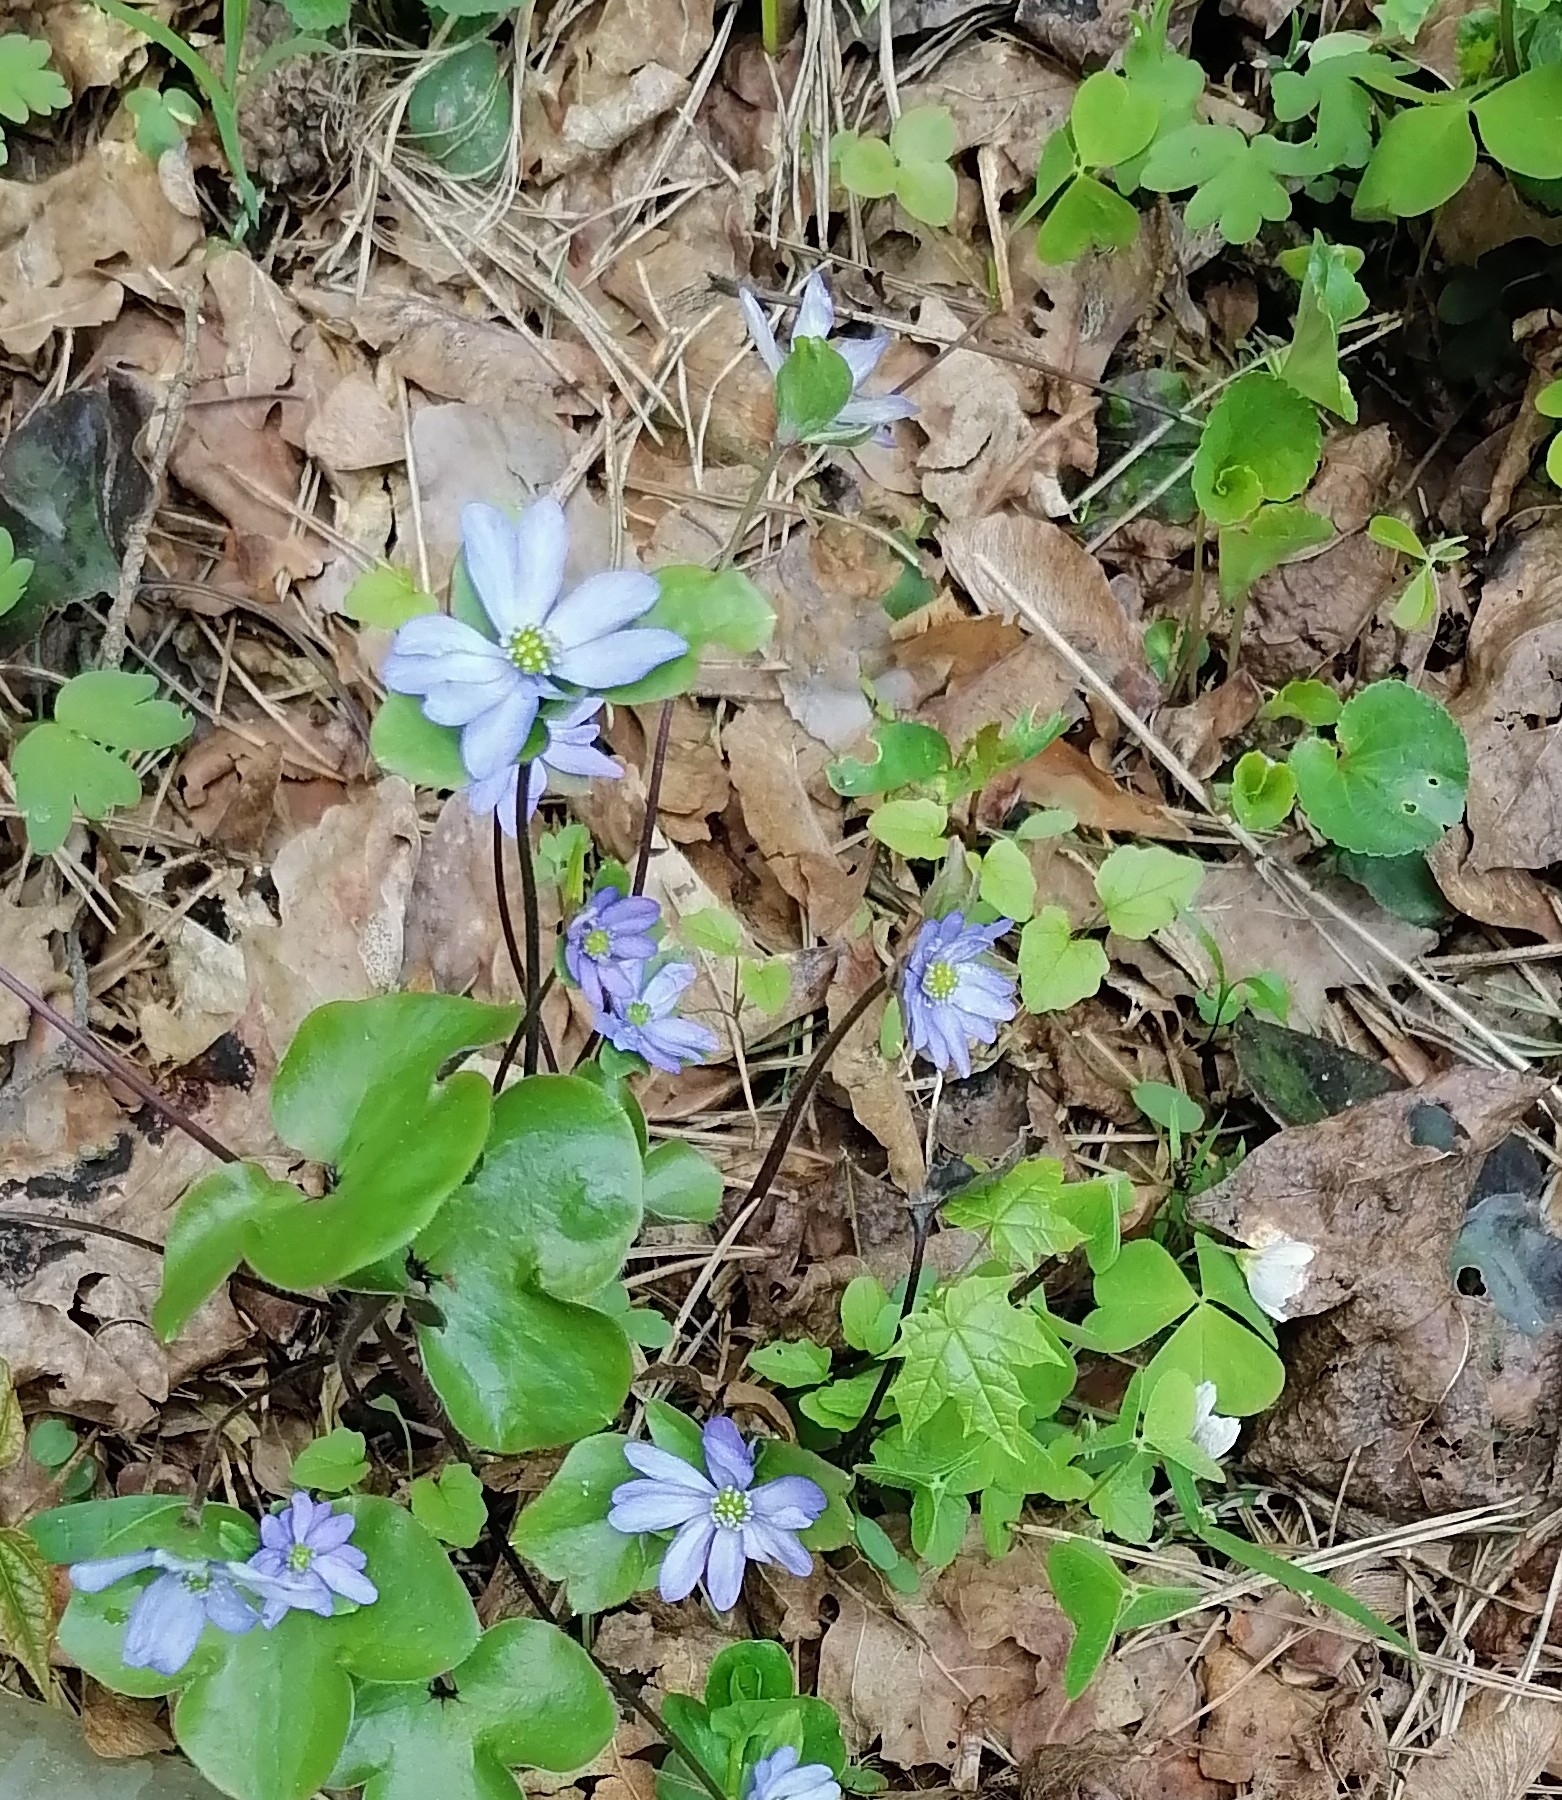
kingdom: Plantae
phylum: Tracheophyta
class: Magnoliopsida
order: Ranunculales
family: Ranunculaceae
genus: Hepatica
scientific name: Hepatica nobilis
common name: Liverleaf
